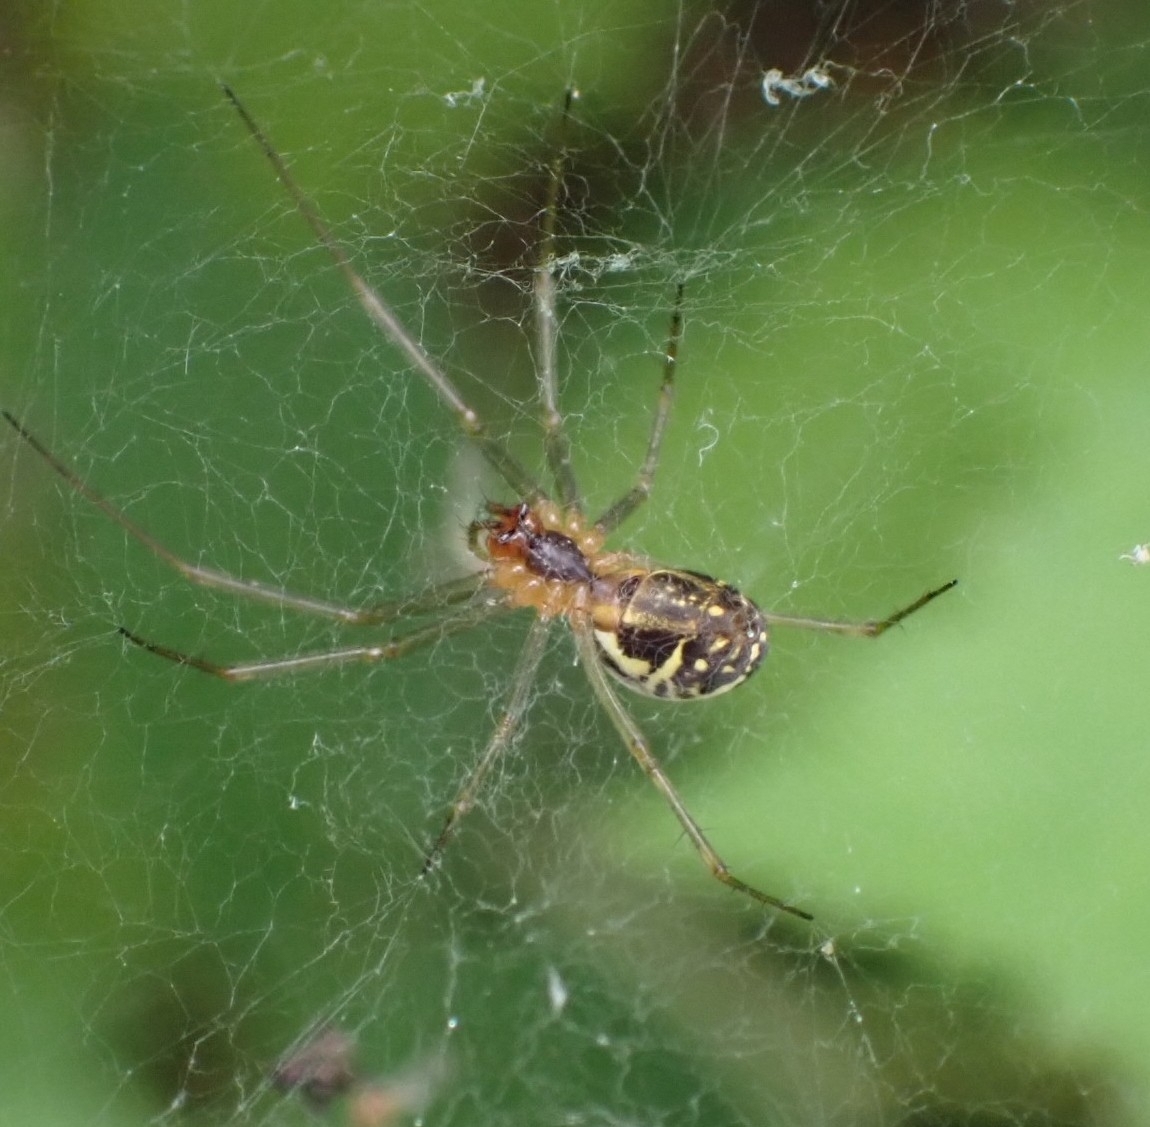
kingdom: Animalia
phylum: Arthropoda
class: Arachnida
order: Araneae
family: Linyphiidae
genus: Neriene
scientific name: Neriene emphana
